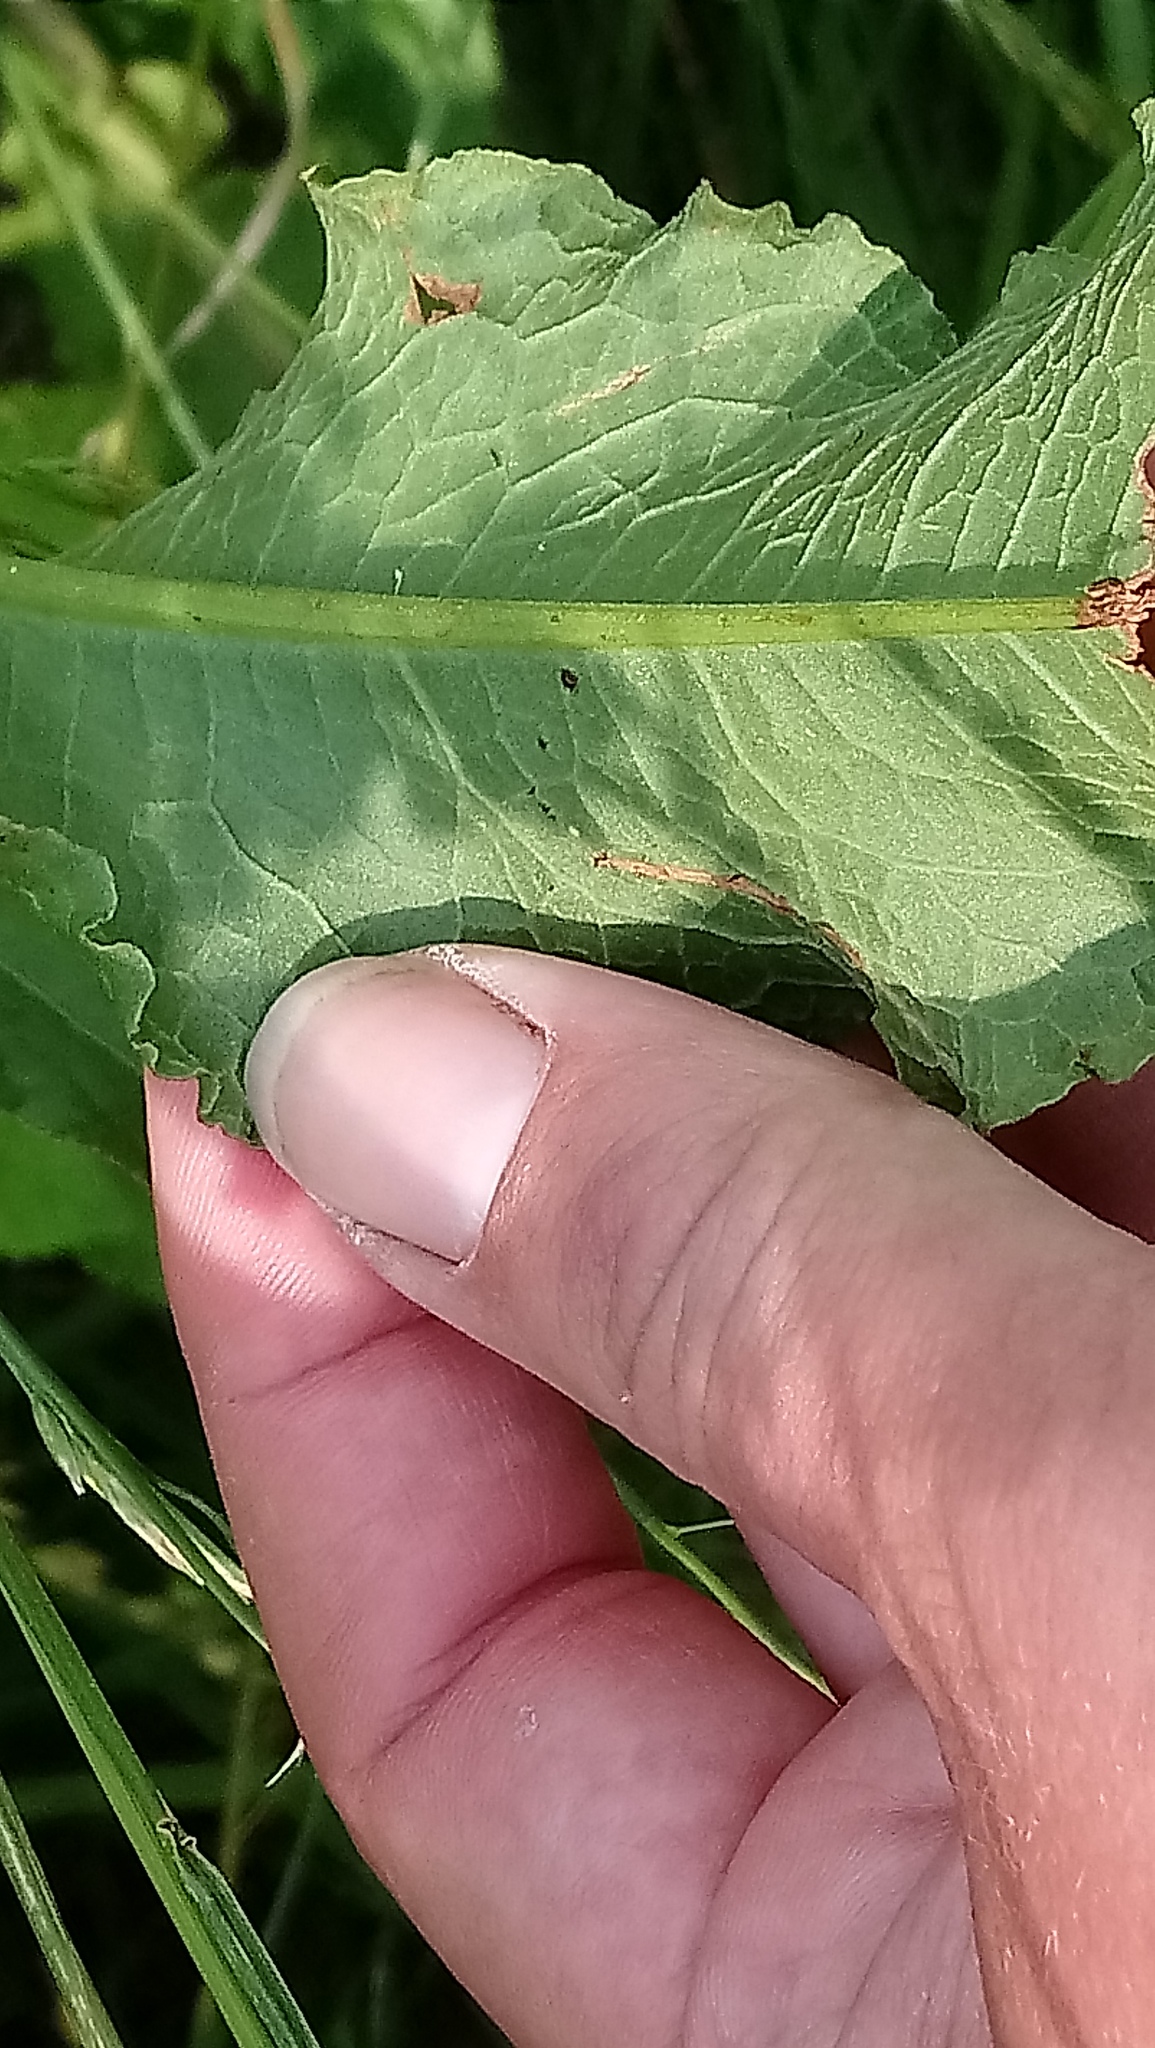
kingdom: Plantae
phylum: Tracheophyta
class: Magnoliopsida
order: Caryophyllales
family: Polygonaceae
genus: Rumex
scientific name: Rumex crispus
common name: Curled dock
